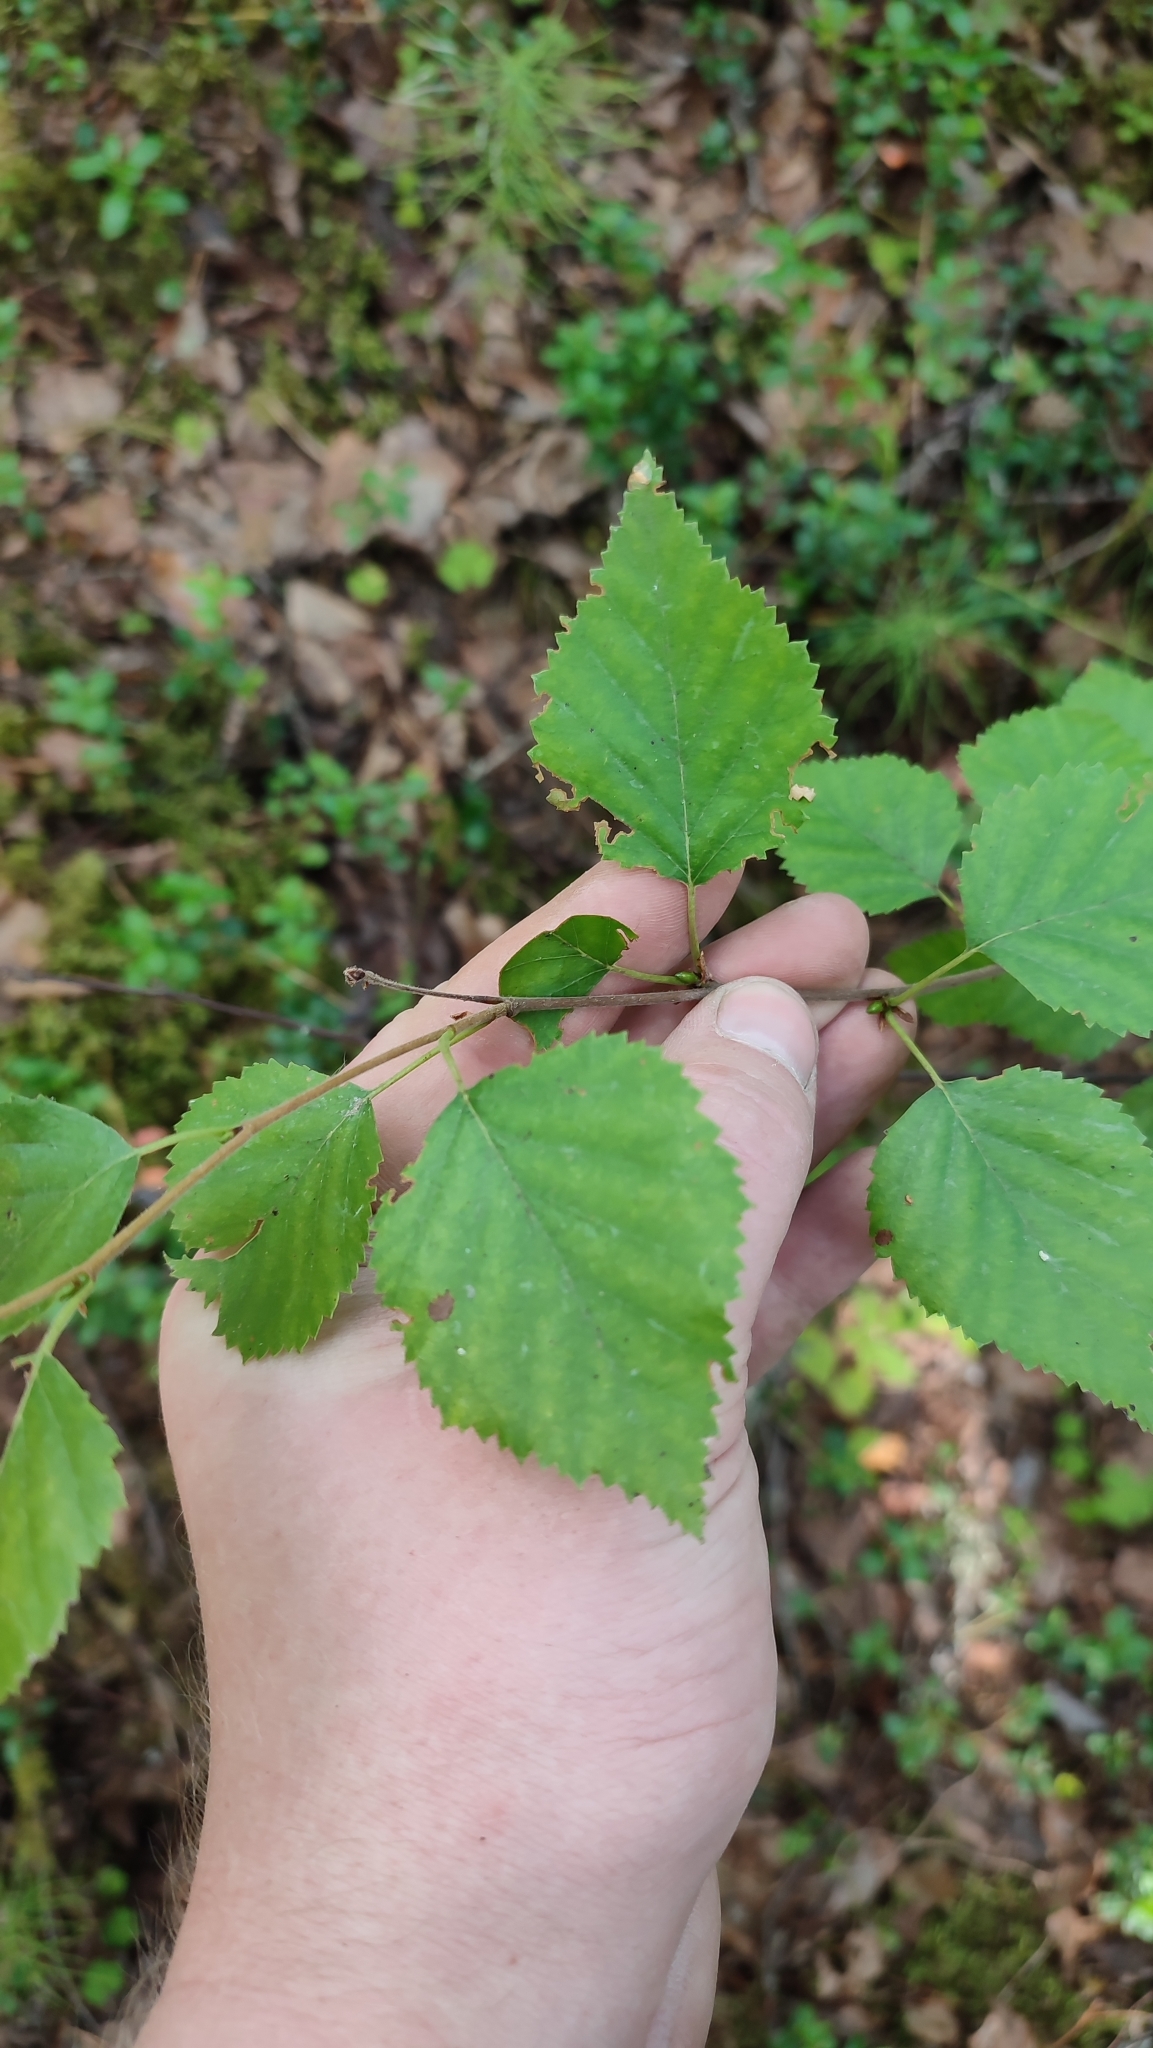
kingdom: Plantae
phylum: Tracheophyta
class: Magnoliopsida
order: Fagales
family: Betulaceae
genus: Betula
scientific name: Betula pubescens
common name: Downy birch
